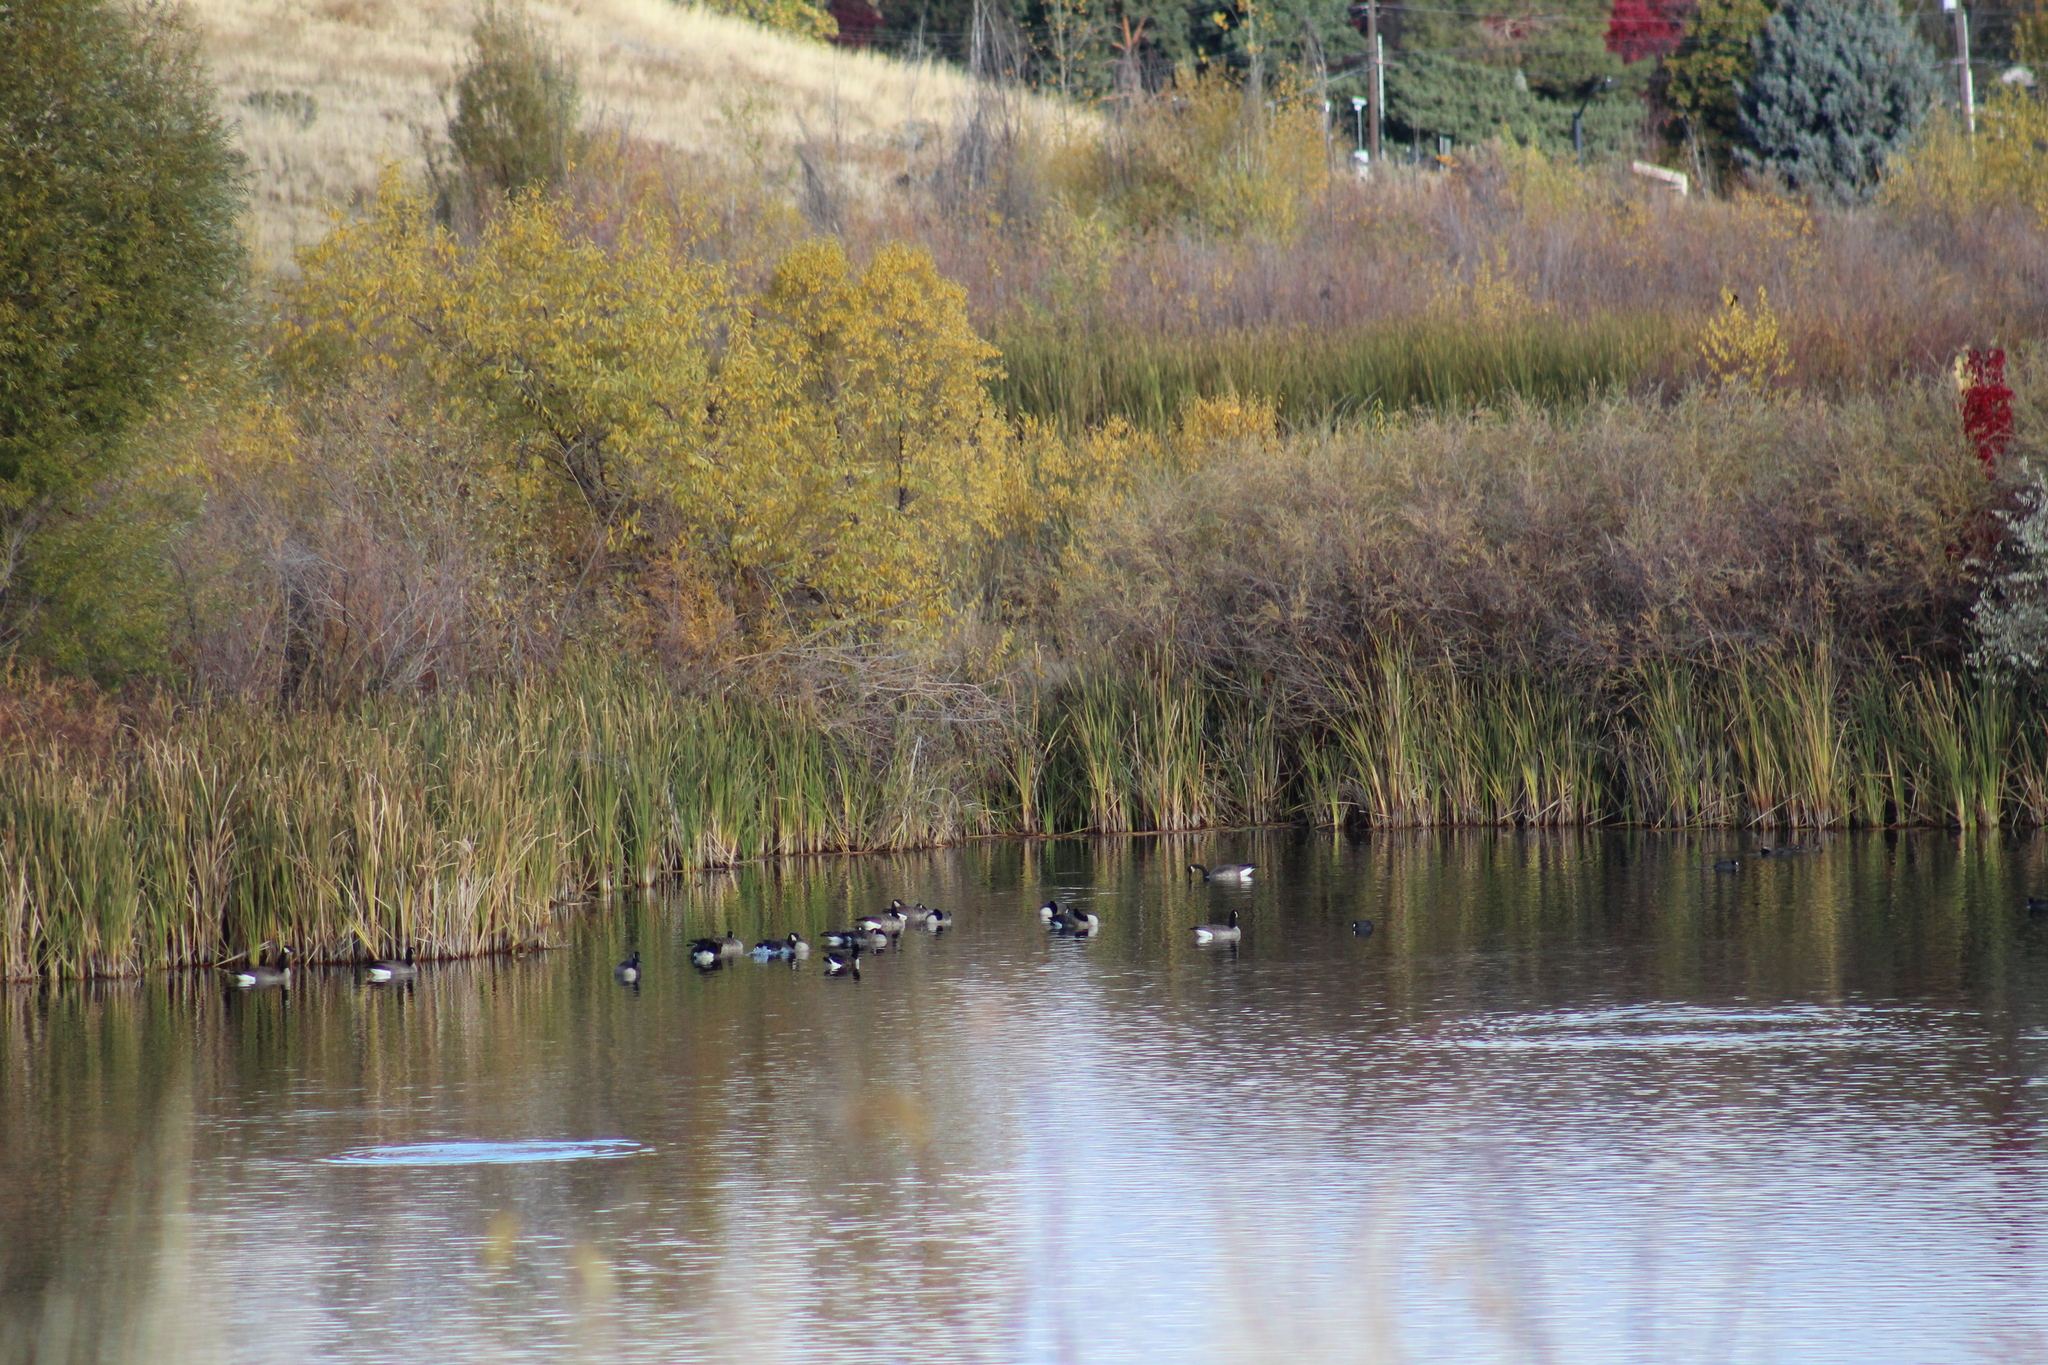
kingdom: Animalia
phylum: Chordata
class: Aves
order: Anseriformes
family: Anatidae
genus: Branta
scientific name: Branta canadensis
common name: Canada goose
